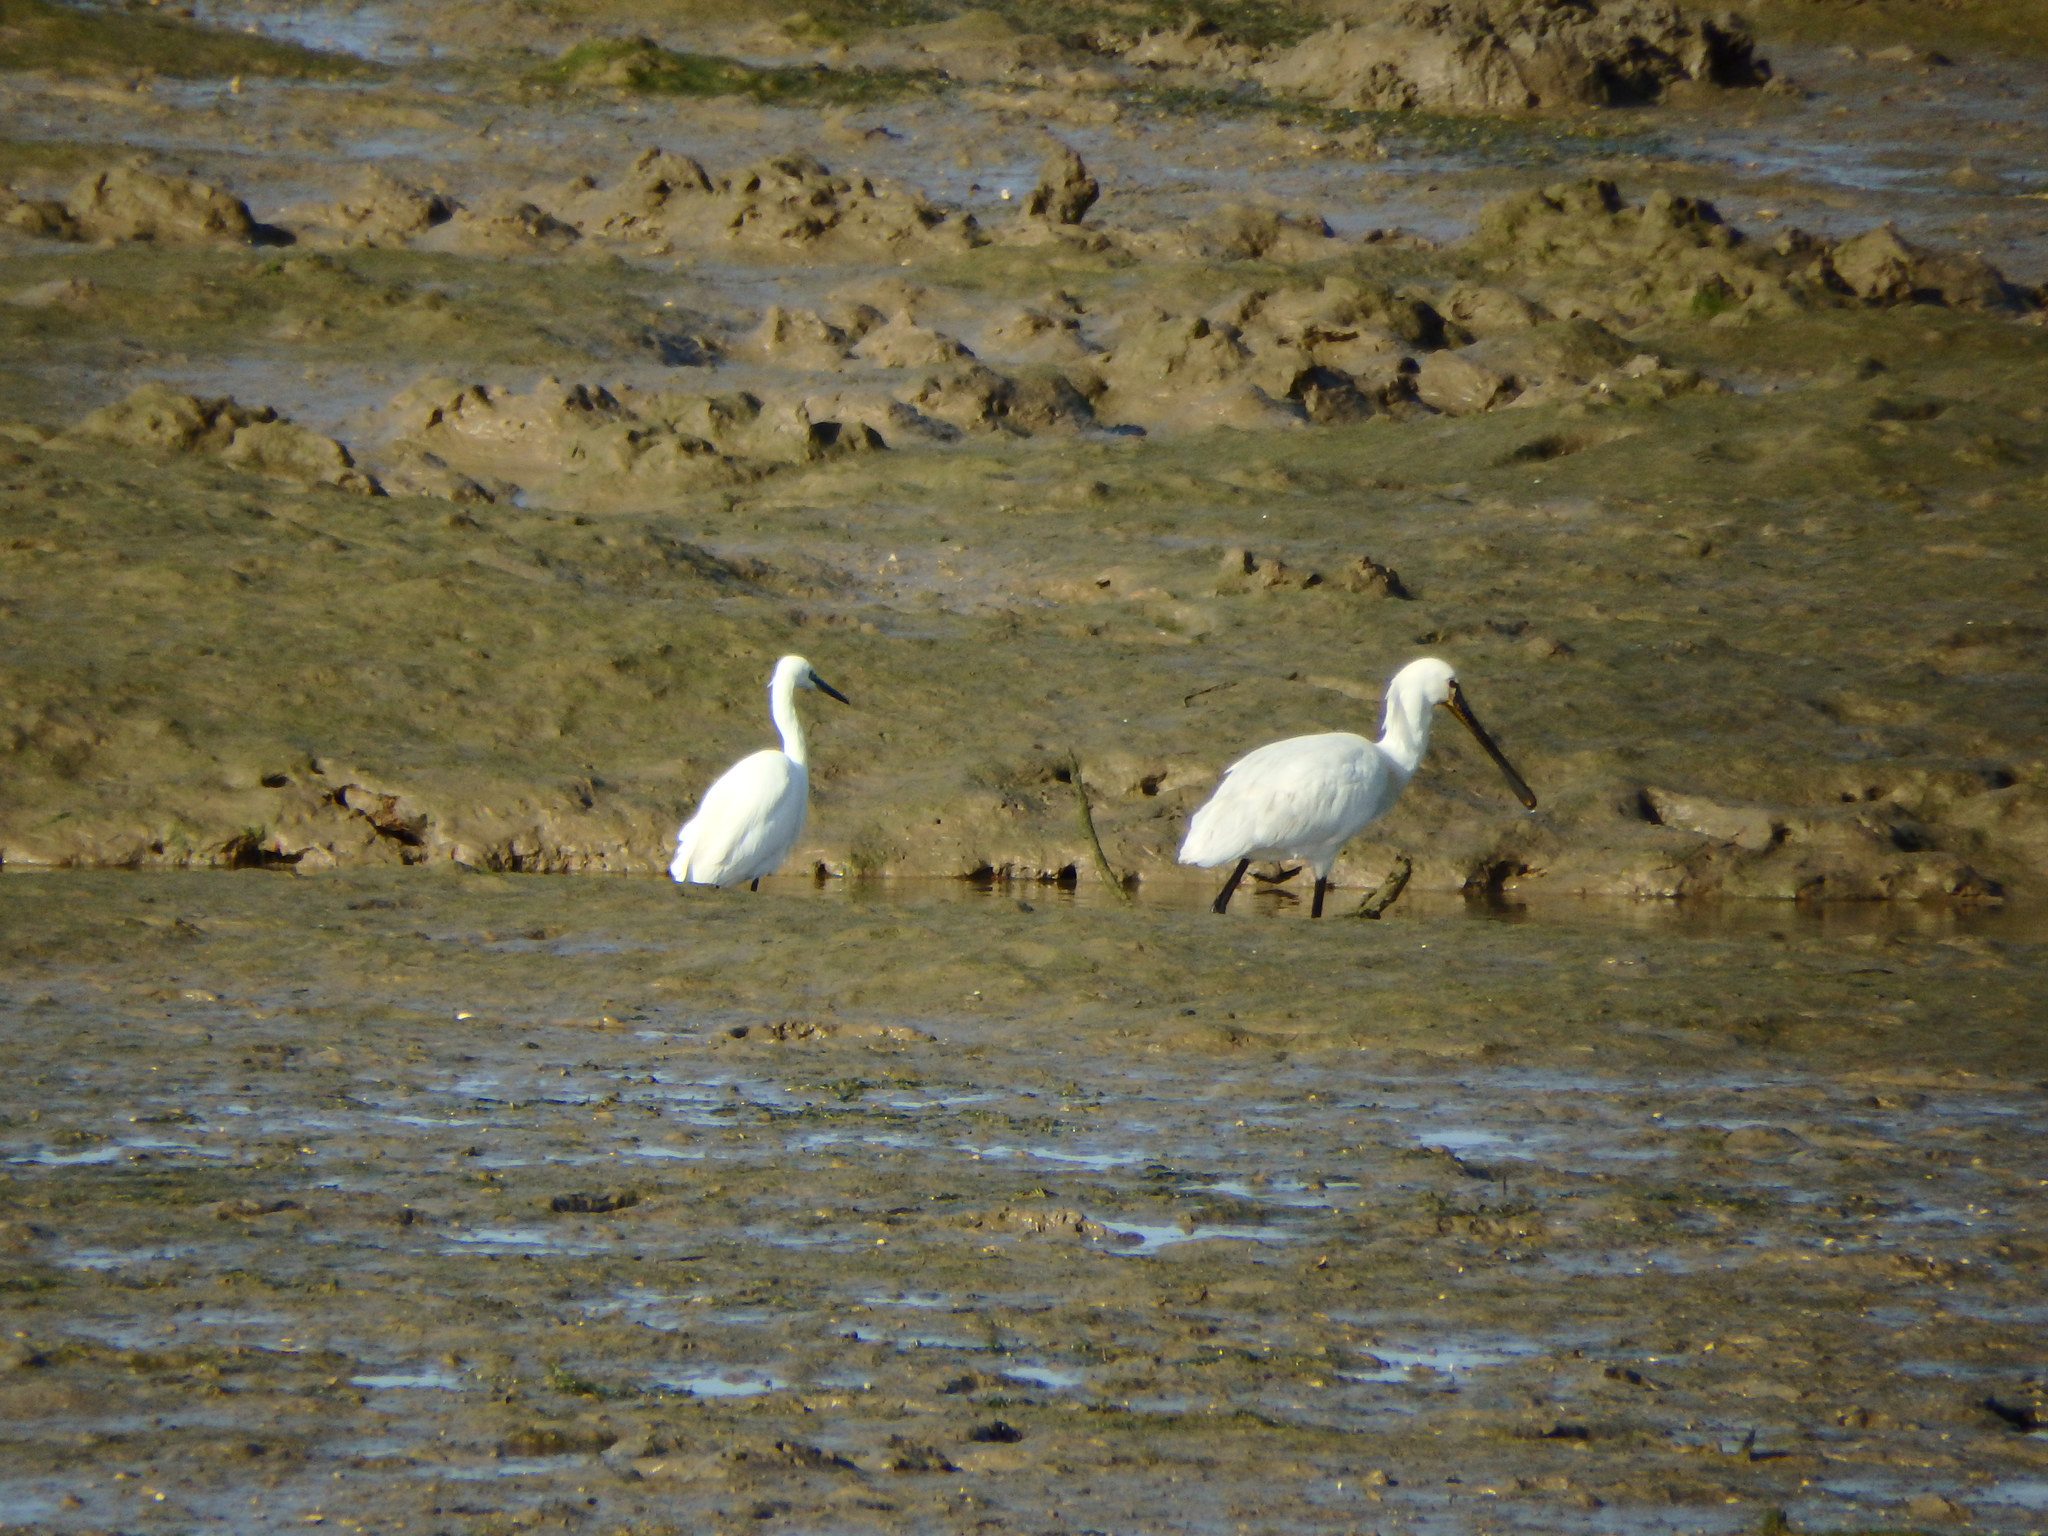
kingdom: Animalia
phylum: Chordata
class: Aves
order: Pelecaniformes
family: Threskiornithidae
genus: Platalea
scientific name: Platalea leucorodia
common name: Eurasian spoonbill
